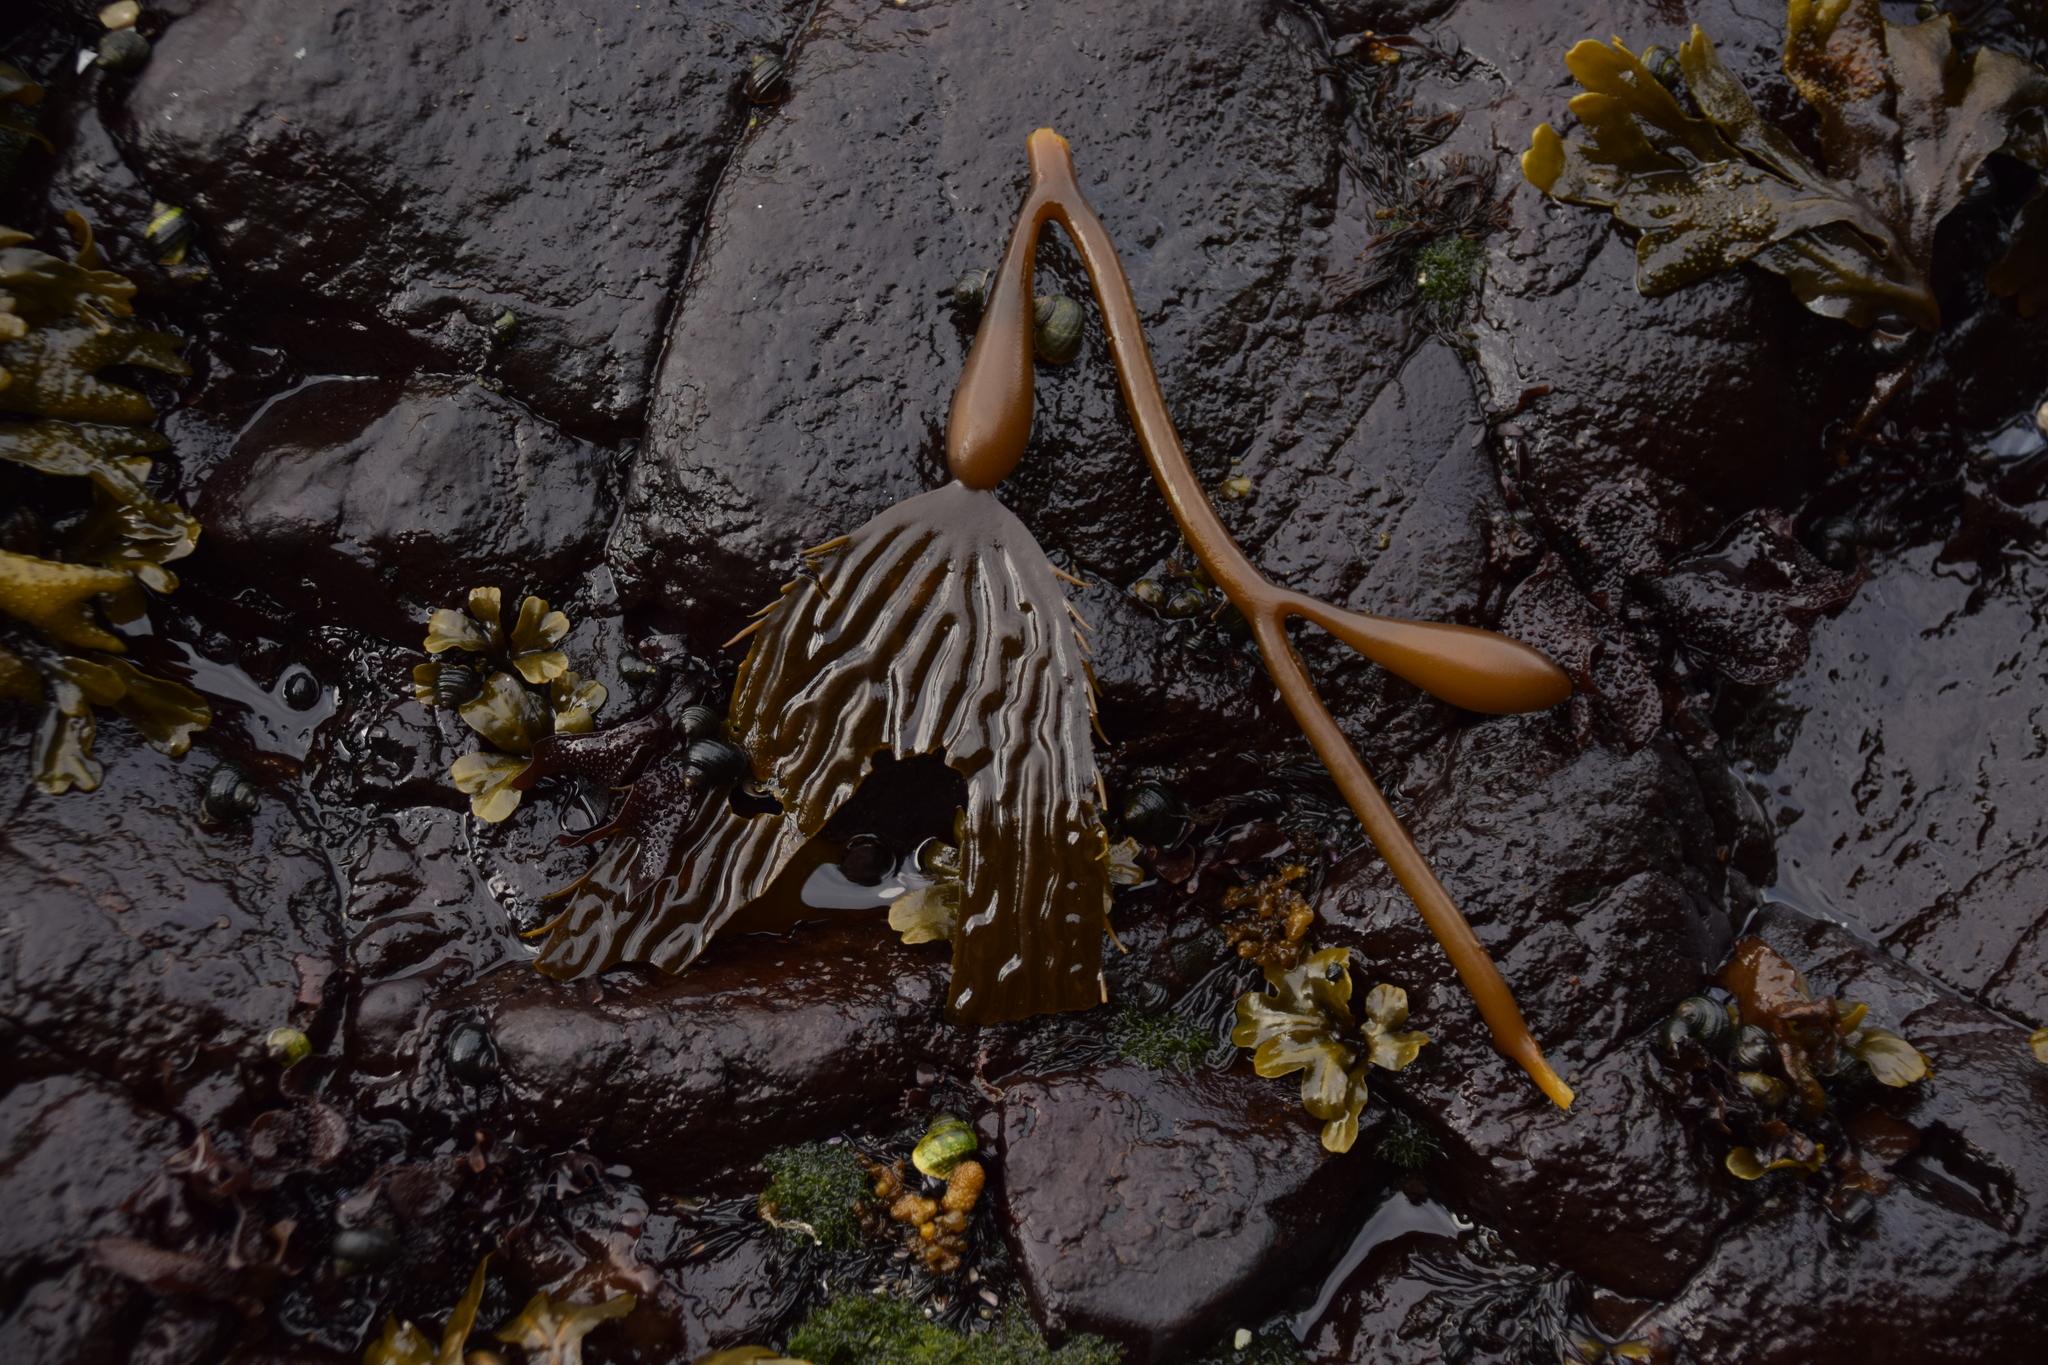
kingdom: Chromista
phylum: Ochrophyta
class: Phaeophyceae
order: Laminariales
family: Laminariaceae
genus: Macrocystis
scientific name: Macrocystis pyrifera
